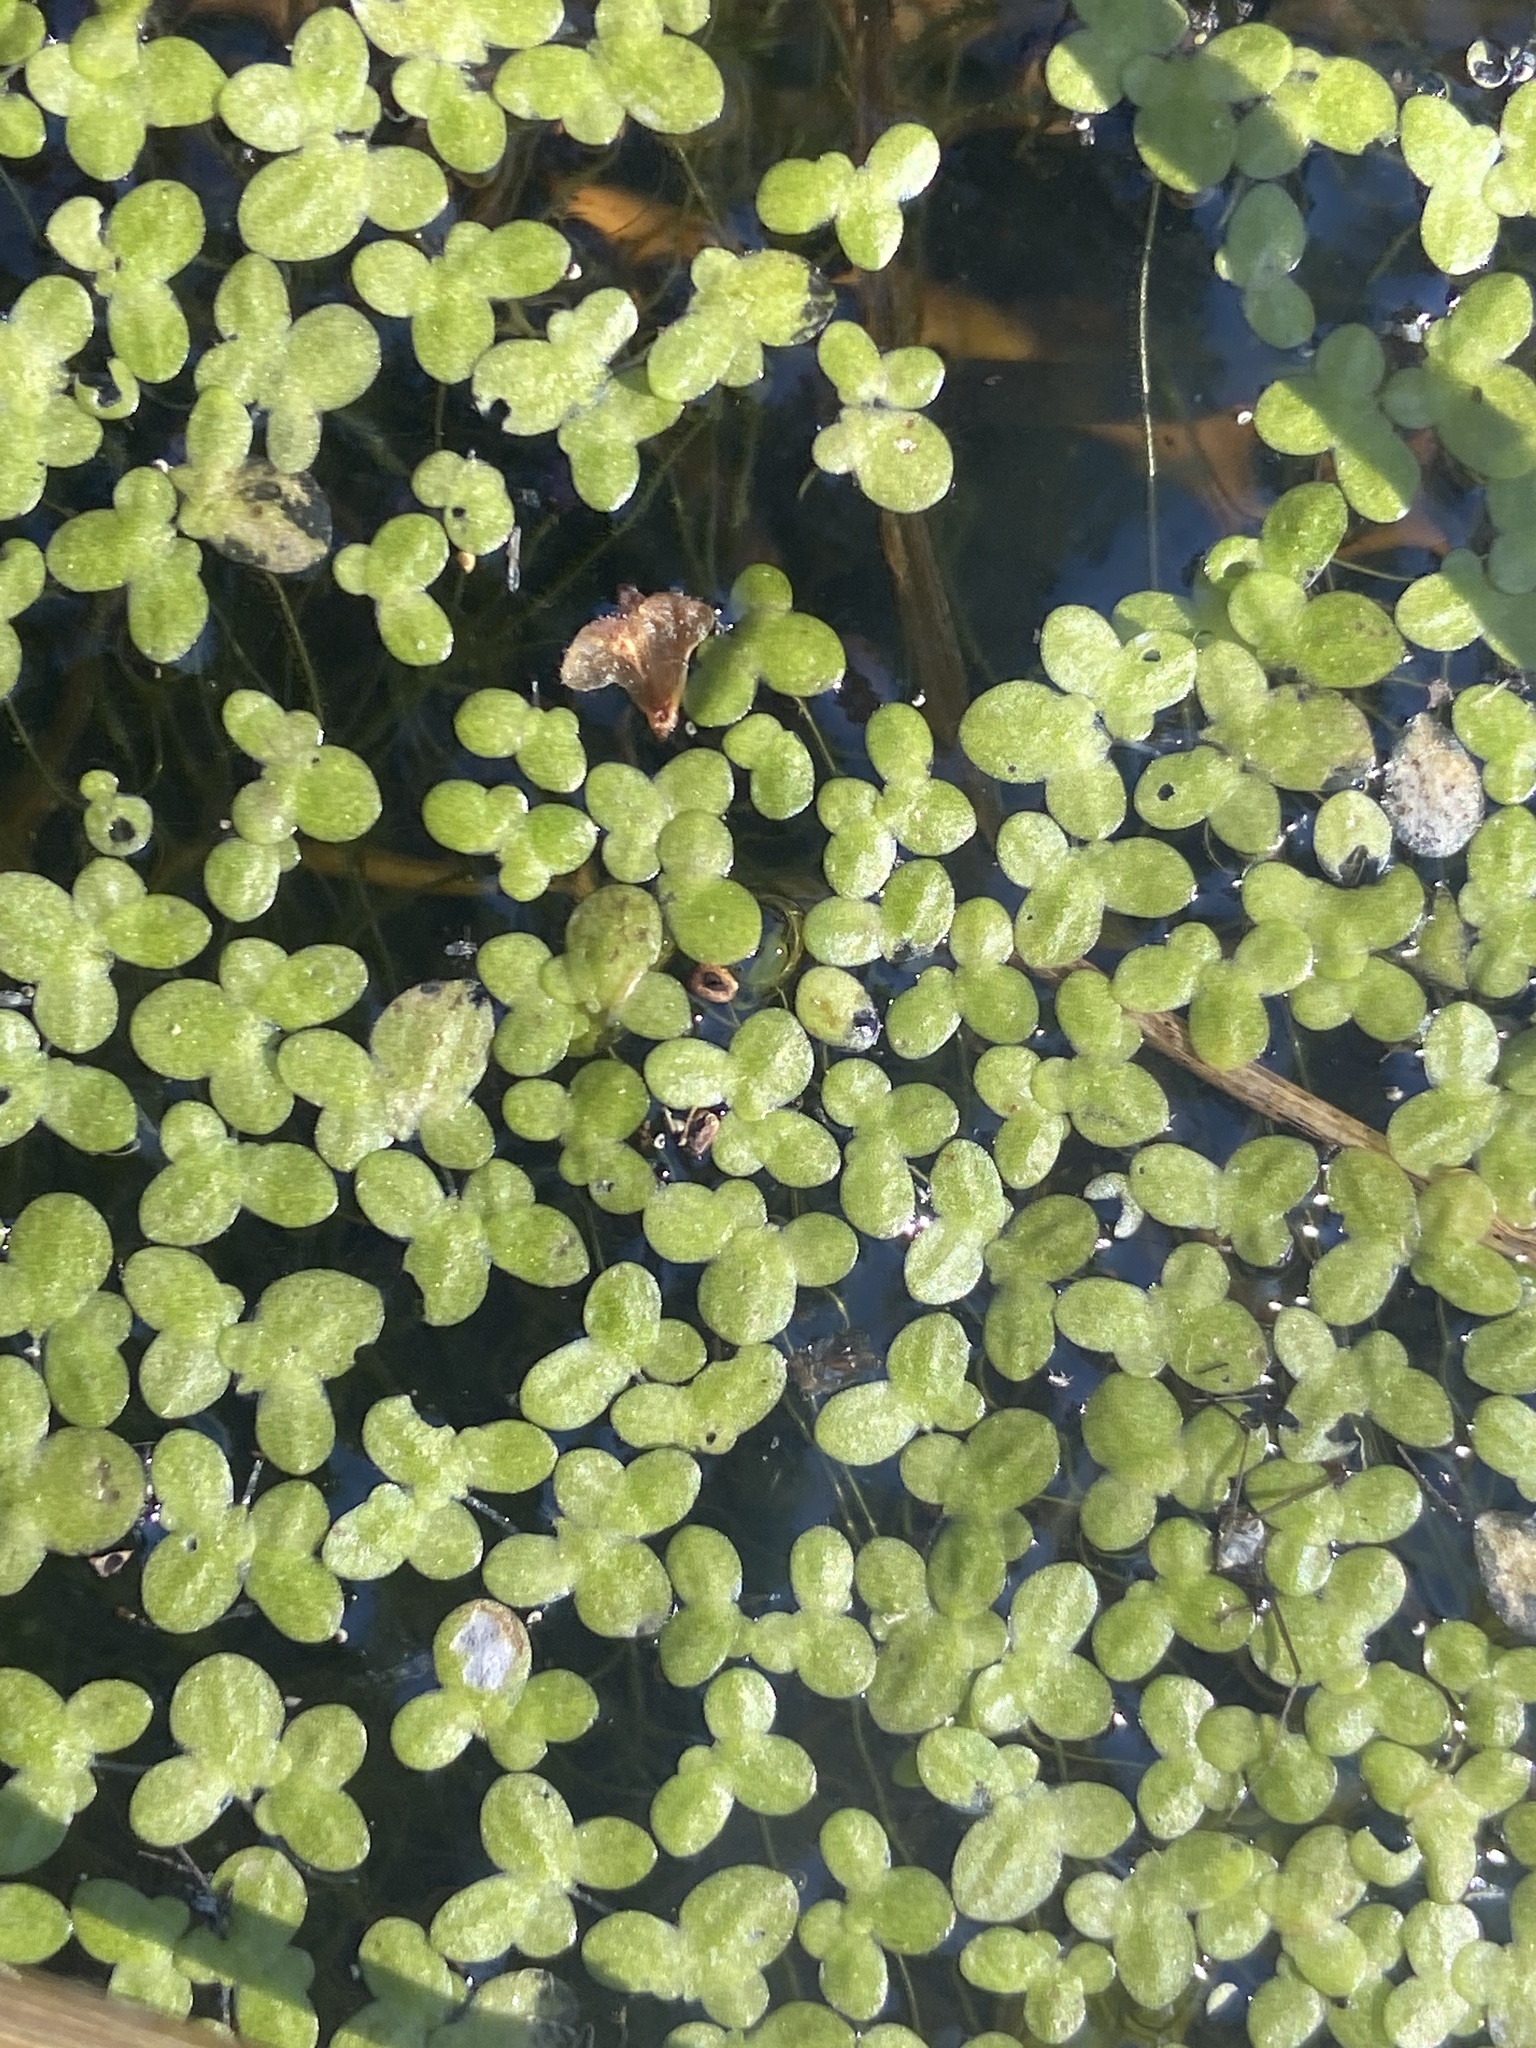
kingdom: Plantae
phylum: Tracheophyta
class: Liliopsida
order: Alismatales
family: Araceae
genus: Lemna
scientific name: Lemna minor
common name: Common duckweed
